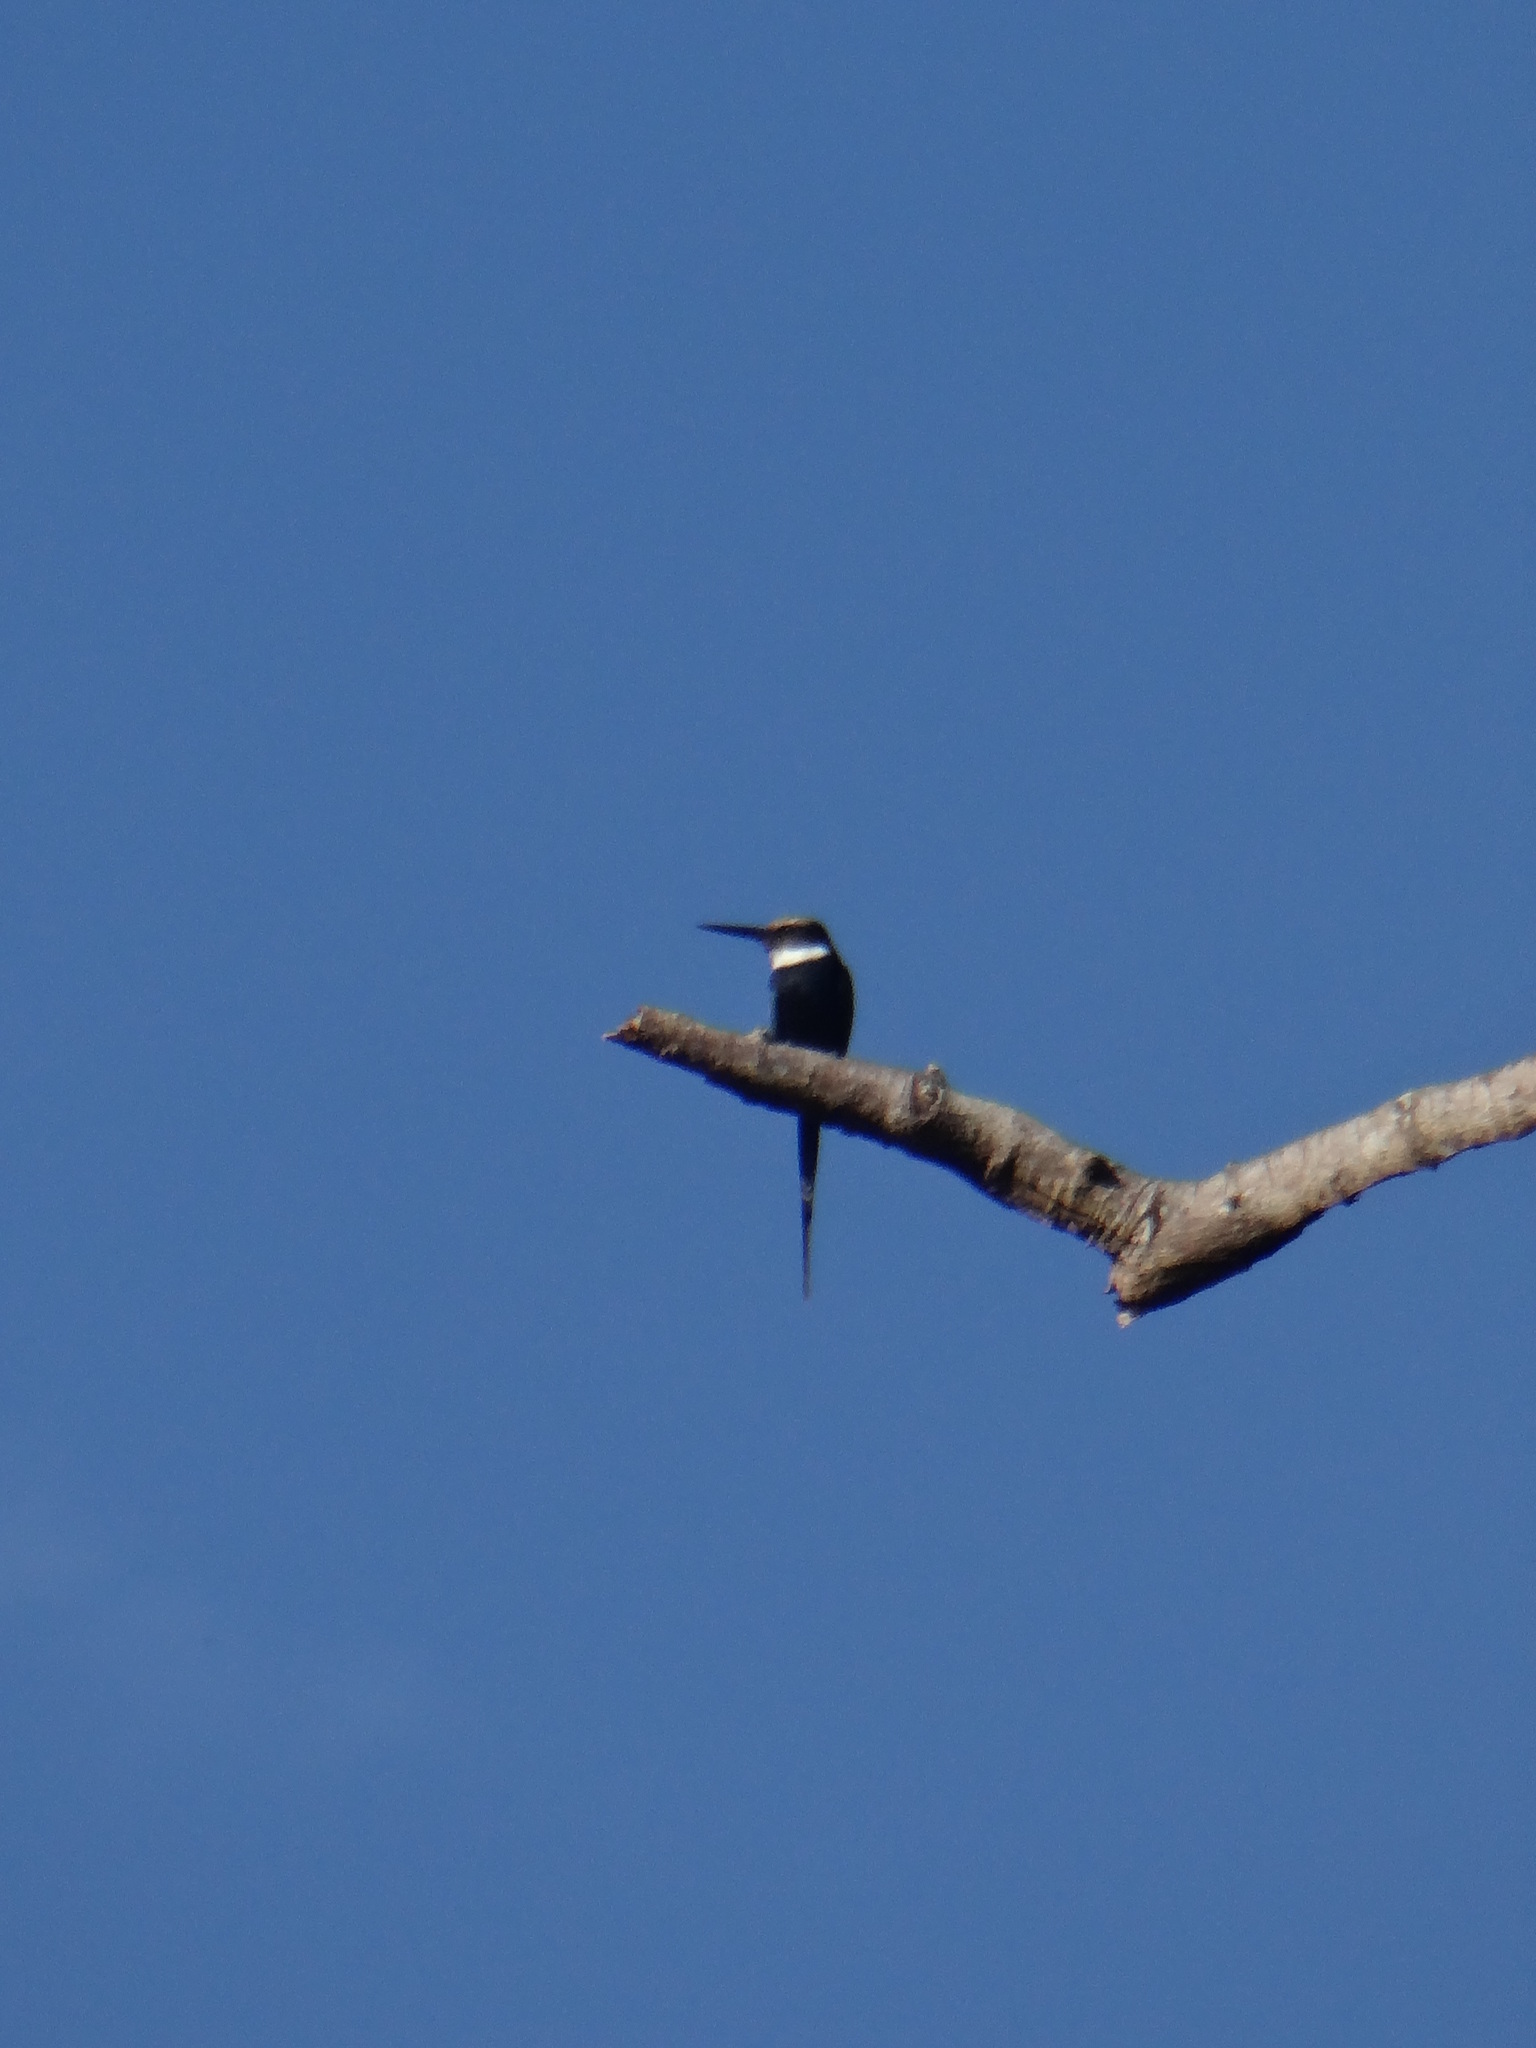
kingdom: Animalia
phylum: Chordata
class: Aves
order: Piciformes
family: Galbulidae
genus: Galbula
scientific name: Galbula dea
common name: Paradise jacamar
